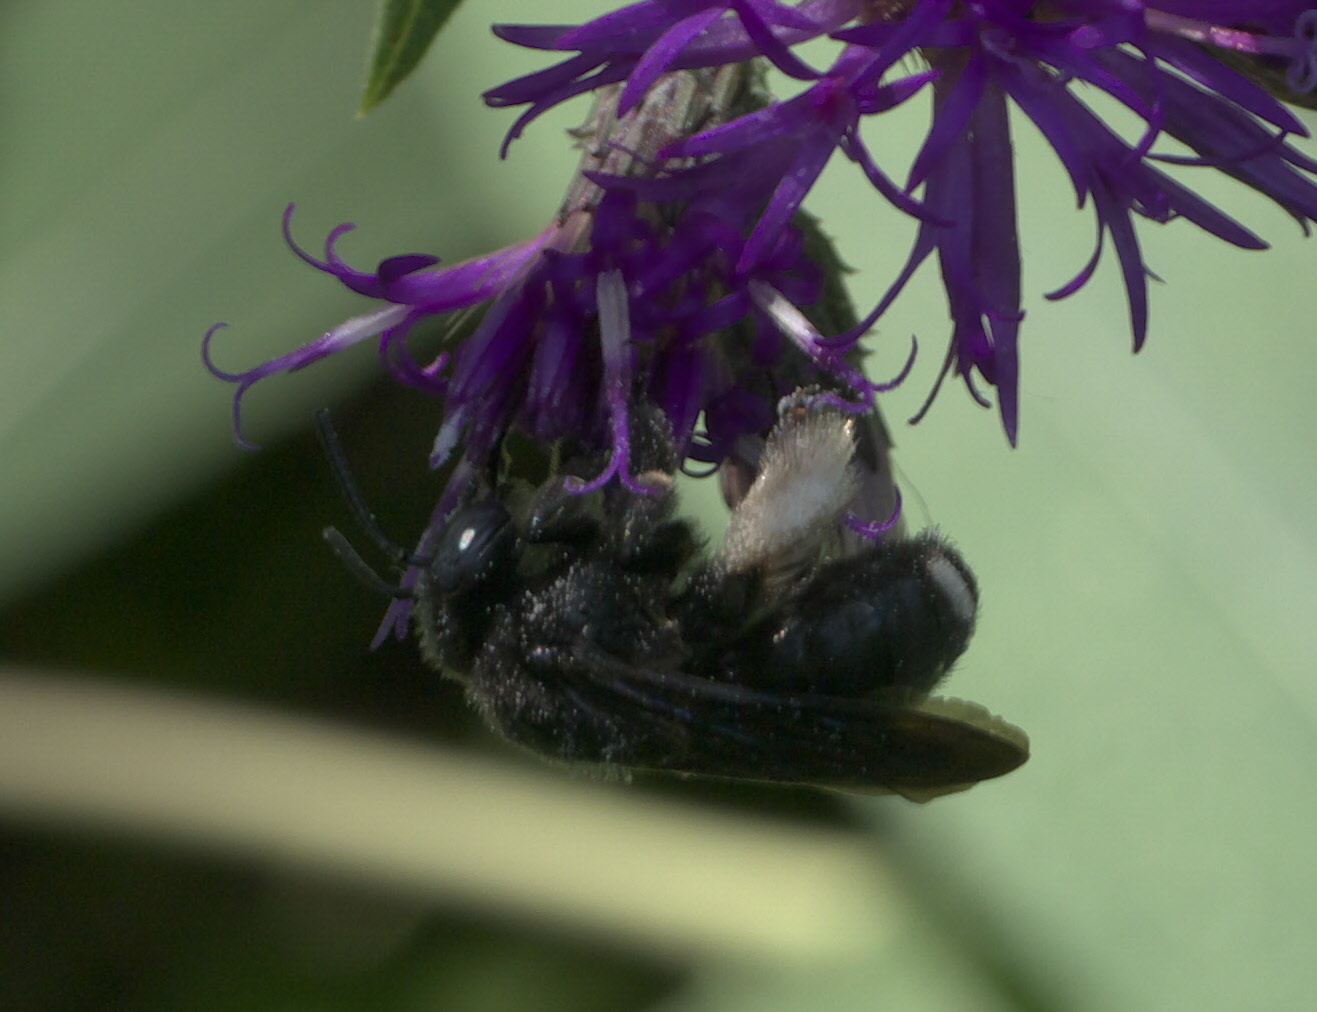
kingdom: Animalia
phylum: Arthropoda
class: Insecta
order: Hymenoptera
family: Apidae
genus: Melissodes
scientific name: Melissodes bimaculatus
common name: Two-spotted long-horned bee
